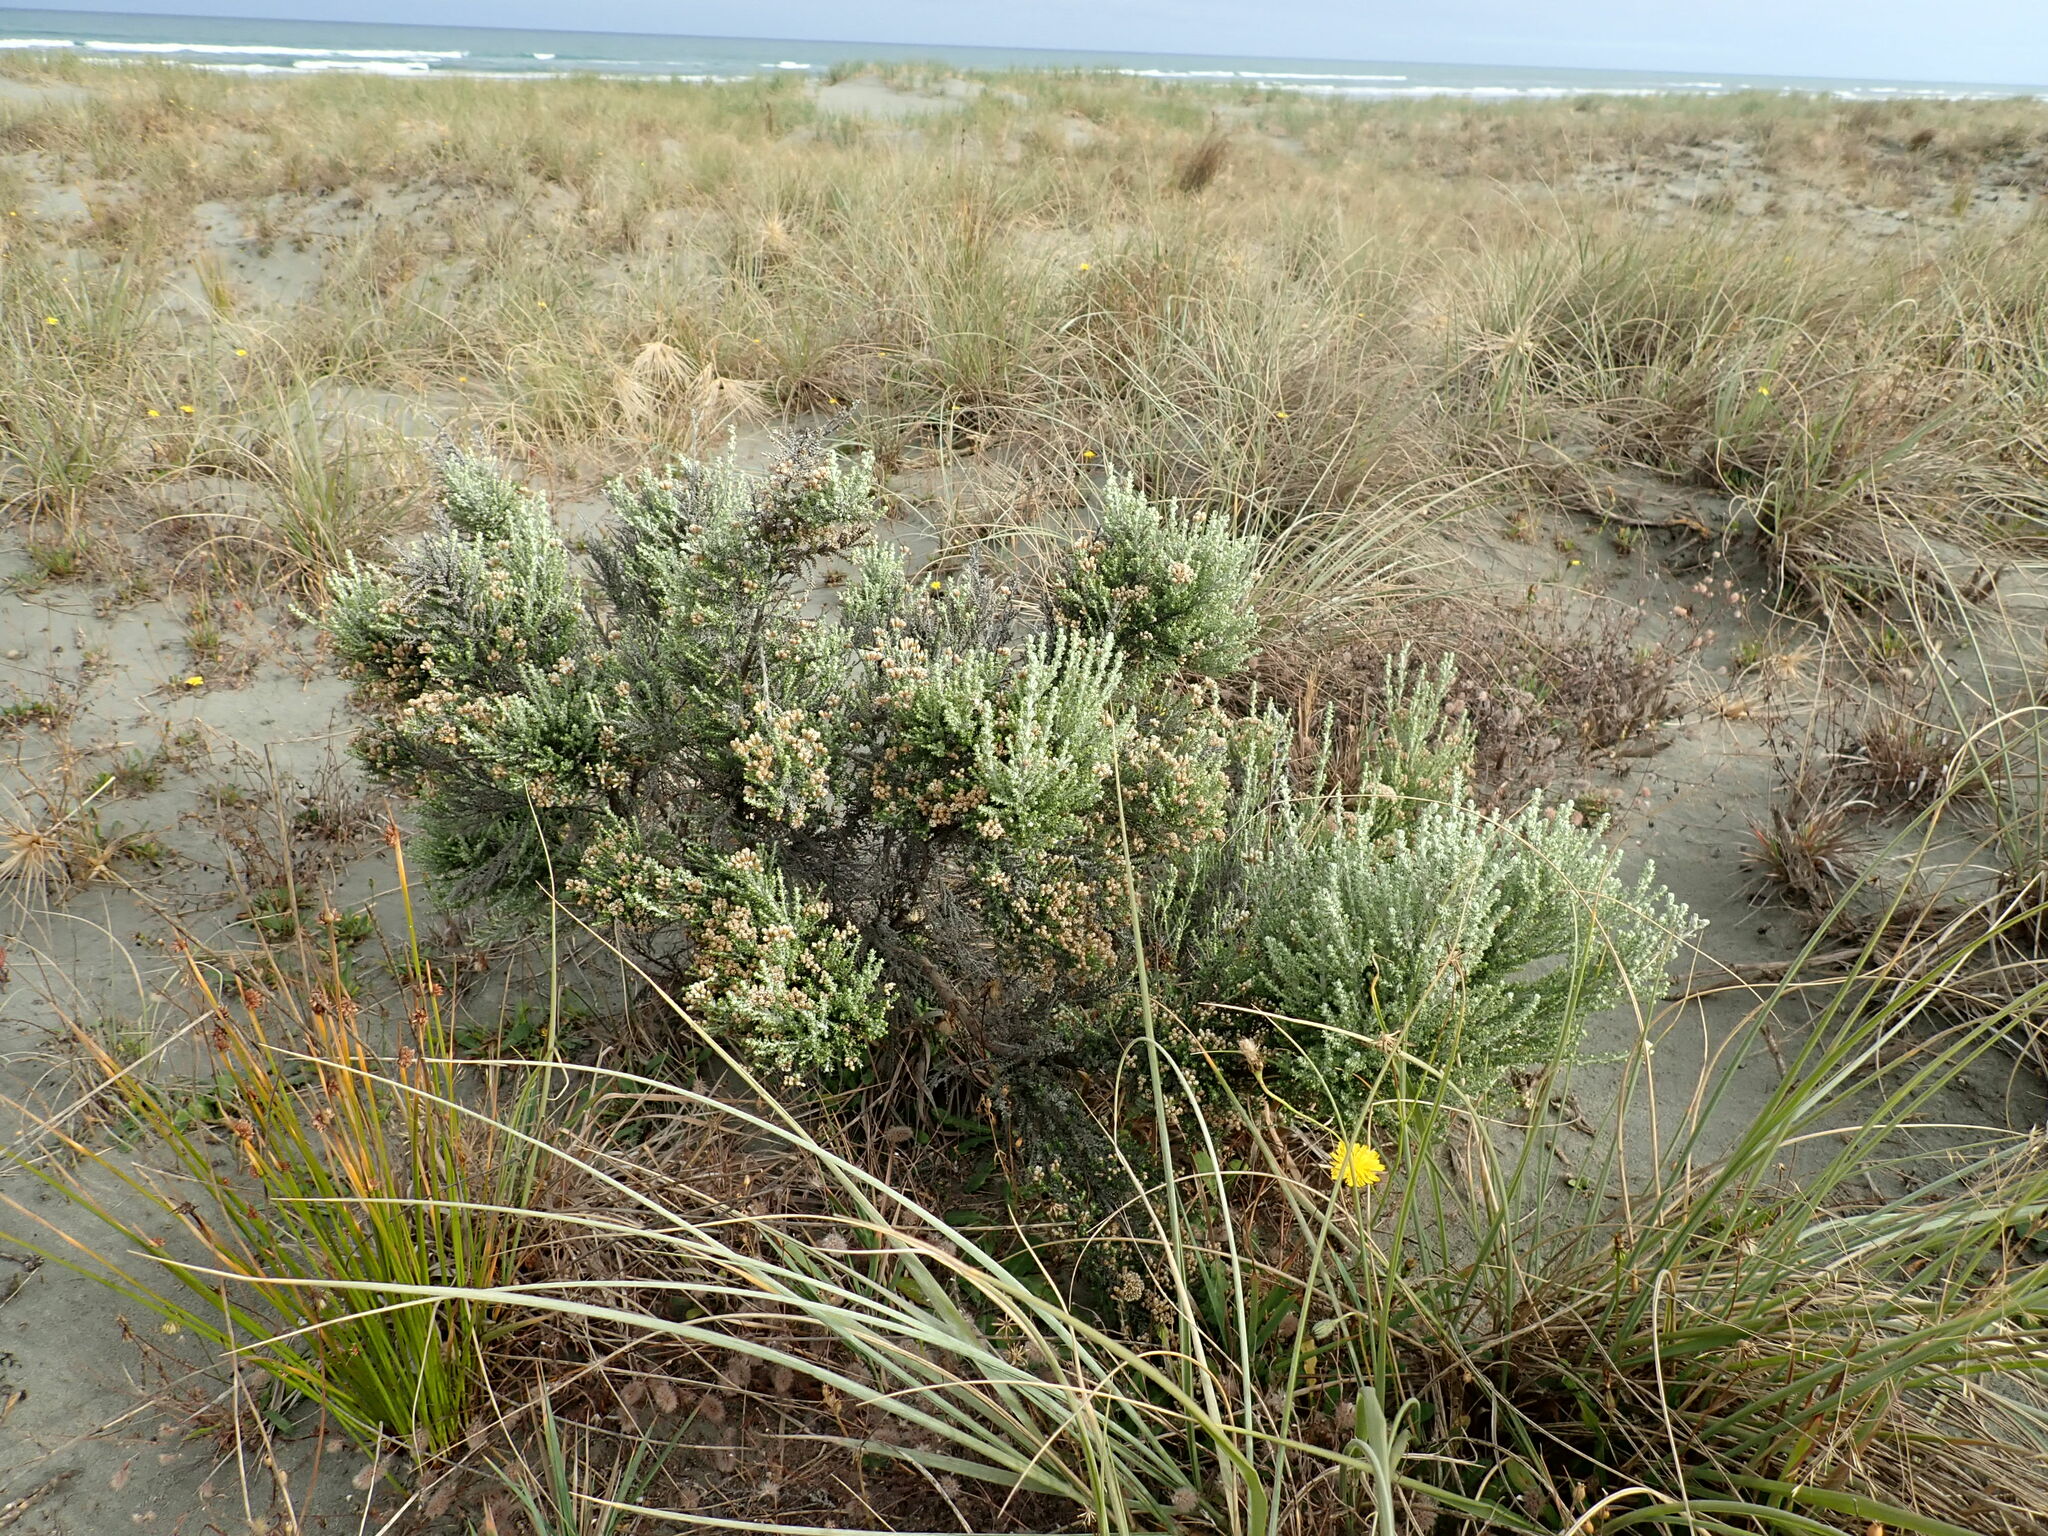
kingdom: Plantae
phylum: Tracheophyta
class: Magnoliopsida
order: Asterales
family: Asteraceae
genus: Ozothamnus
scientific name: Ozothamnus leptophyllus
